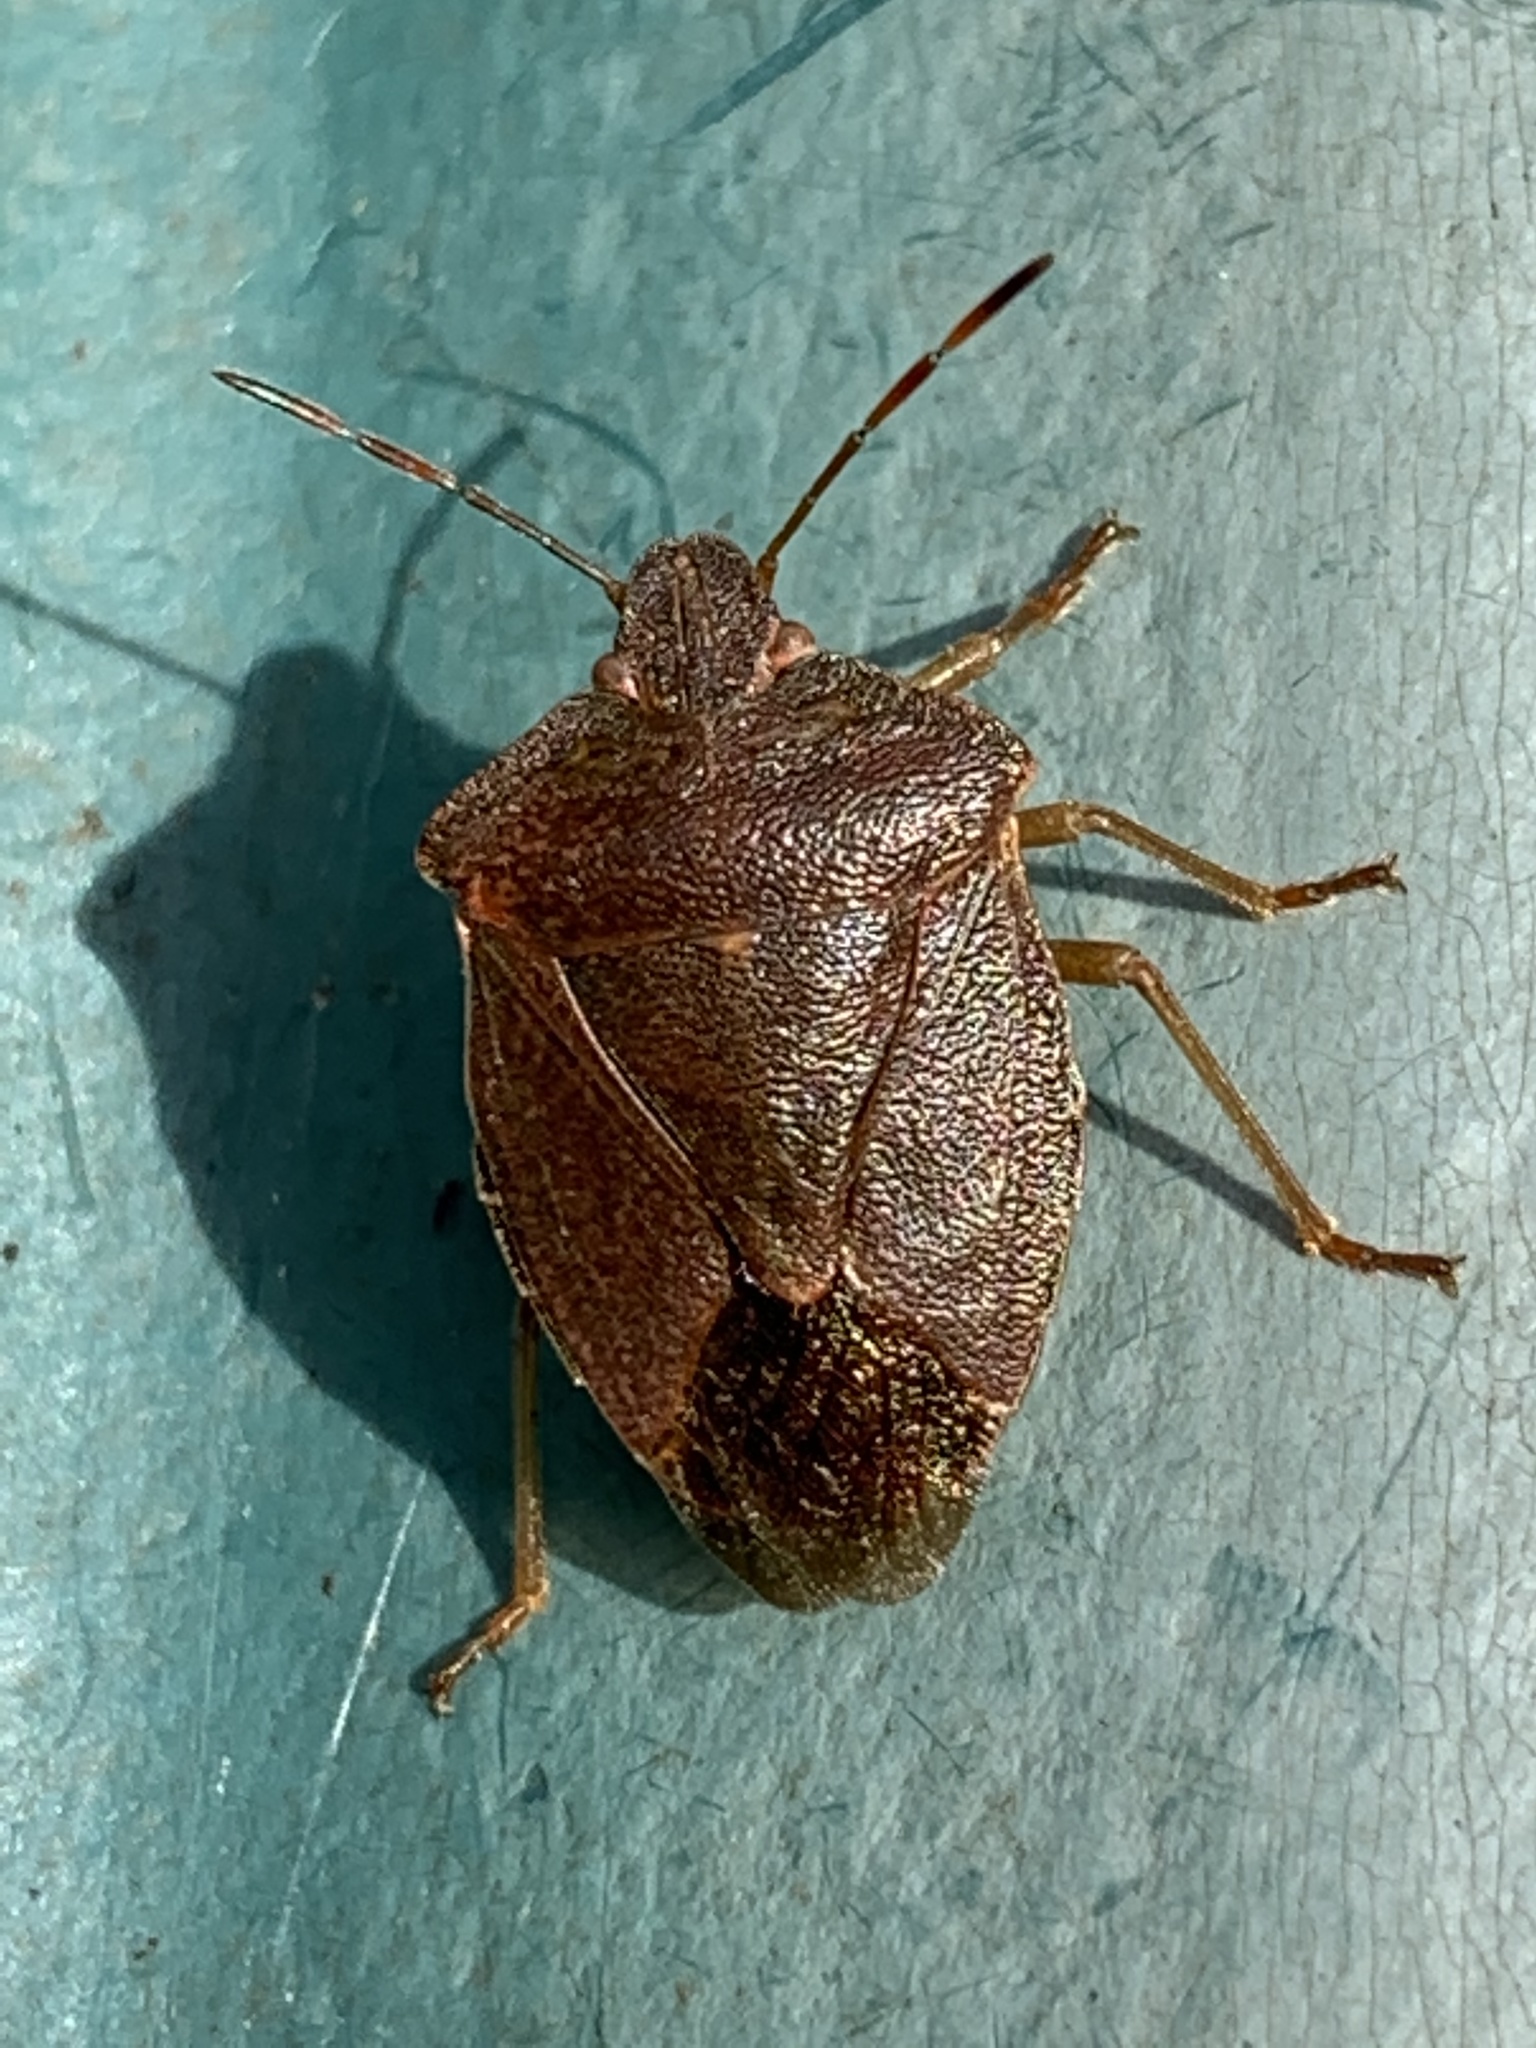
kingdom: Animalia
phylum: Arthropoda
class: Insecta
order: Hemiptera
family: Pentatomidae
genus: Palomena
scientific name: Palomena prasina
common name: Green shieldbug
